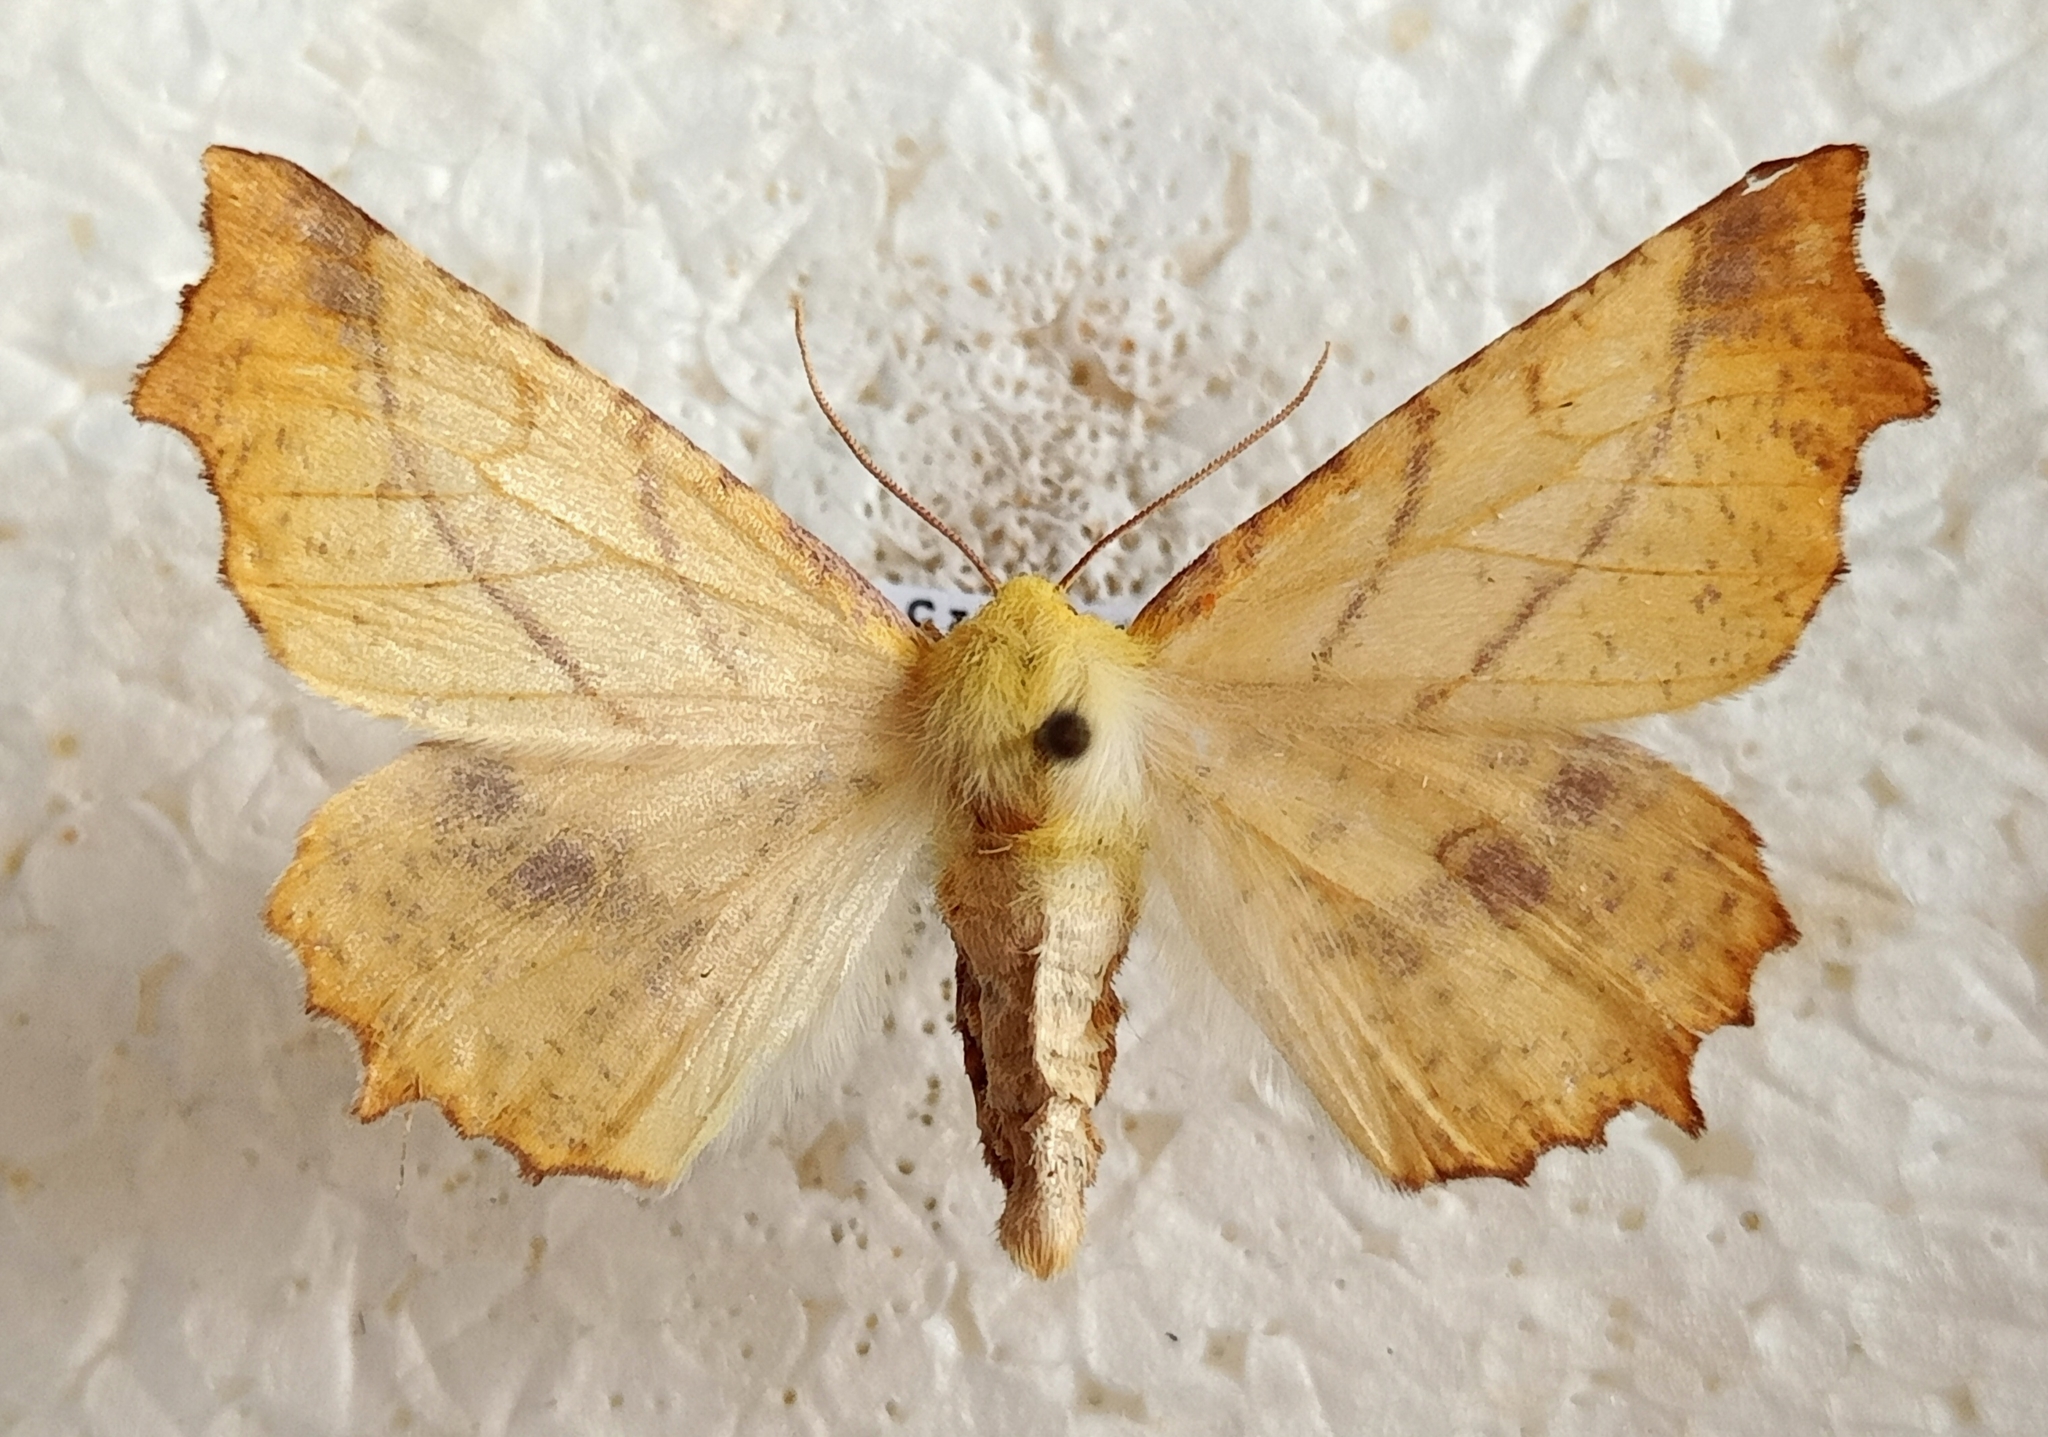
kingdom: Animalia
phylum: Arthropoda
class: Insecta
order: Lepidoptera
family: Geometridae
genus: Ennomos
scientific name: Ennomos alniaria
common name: Canary-shouldered thorn
